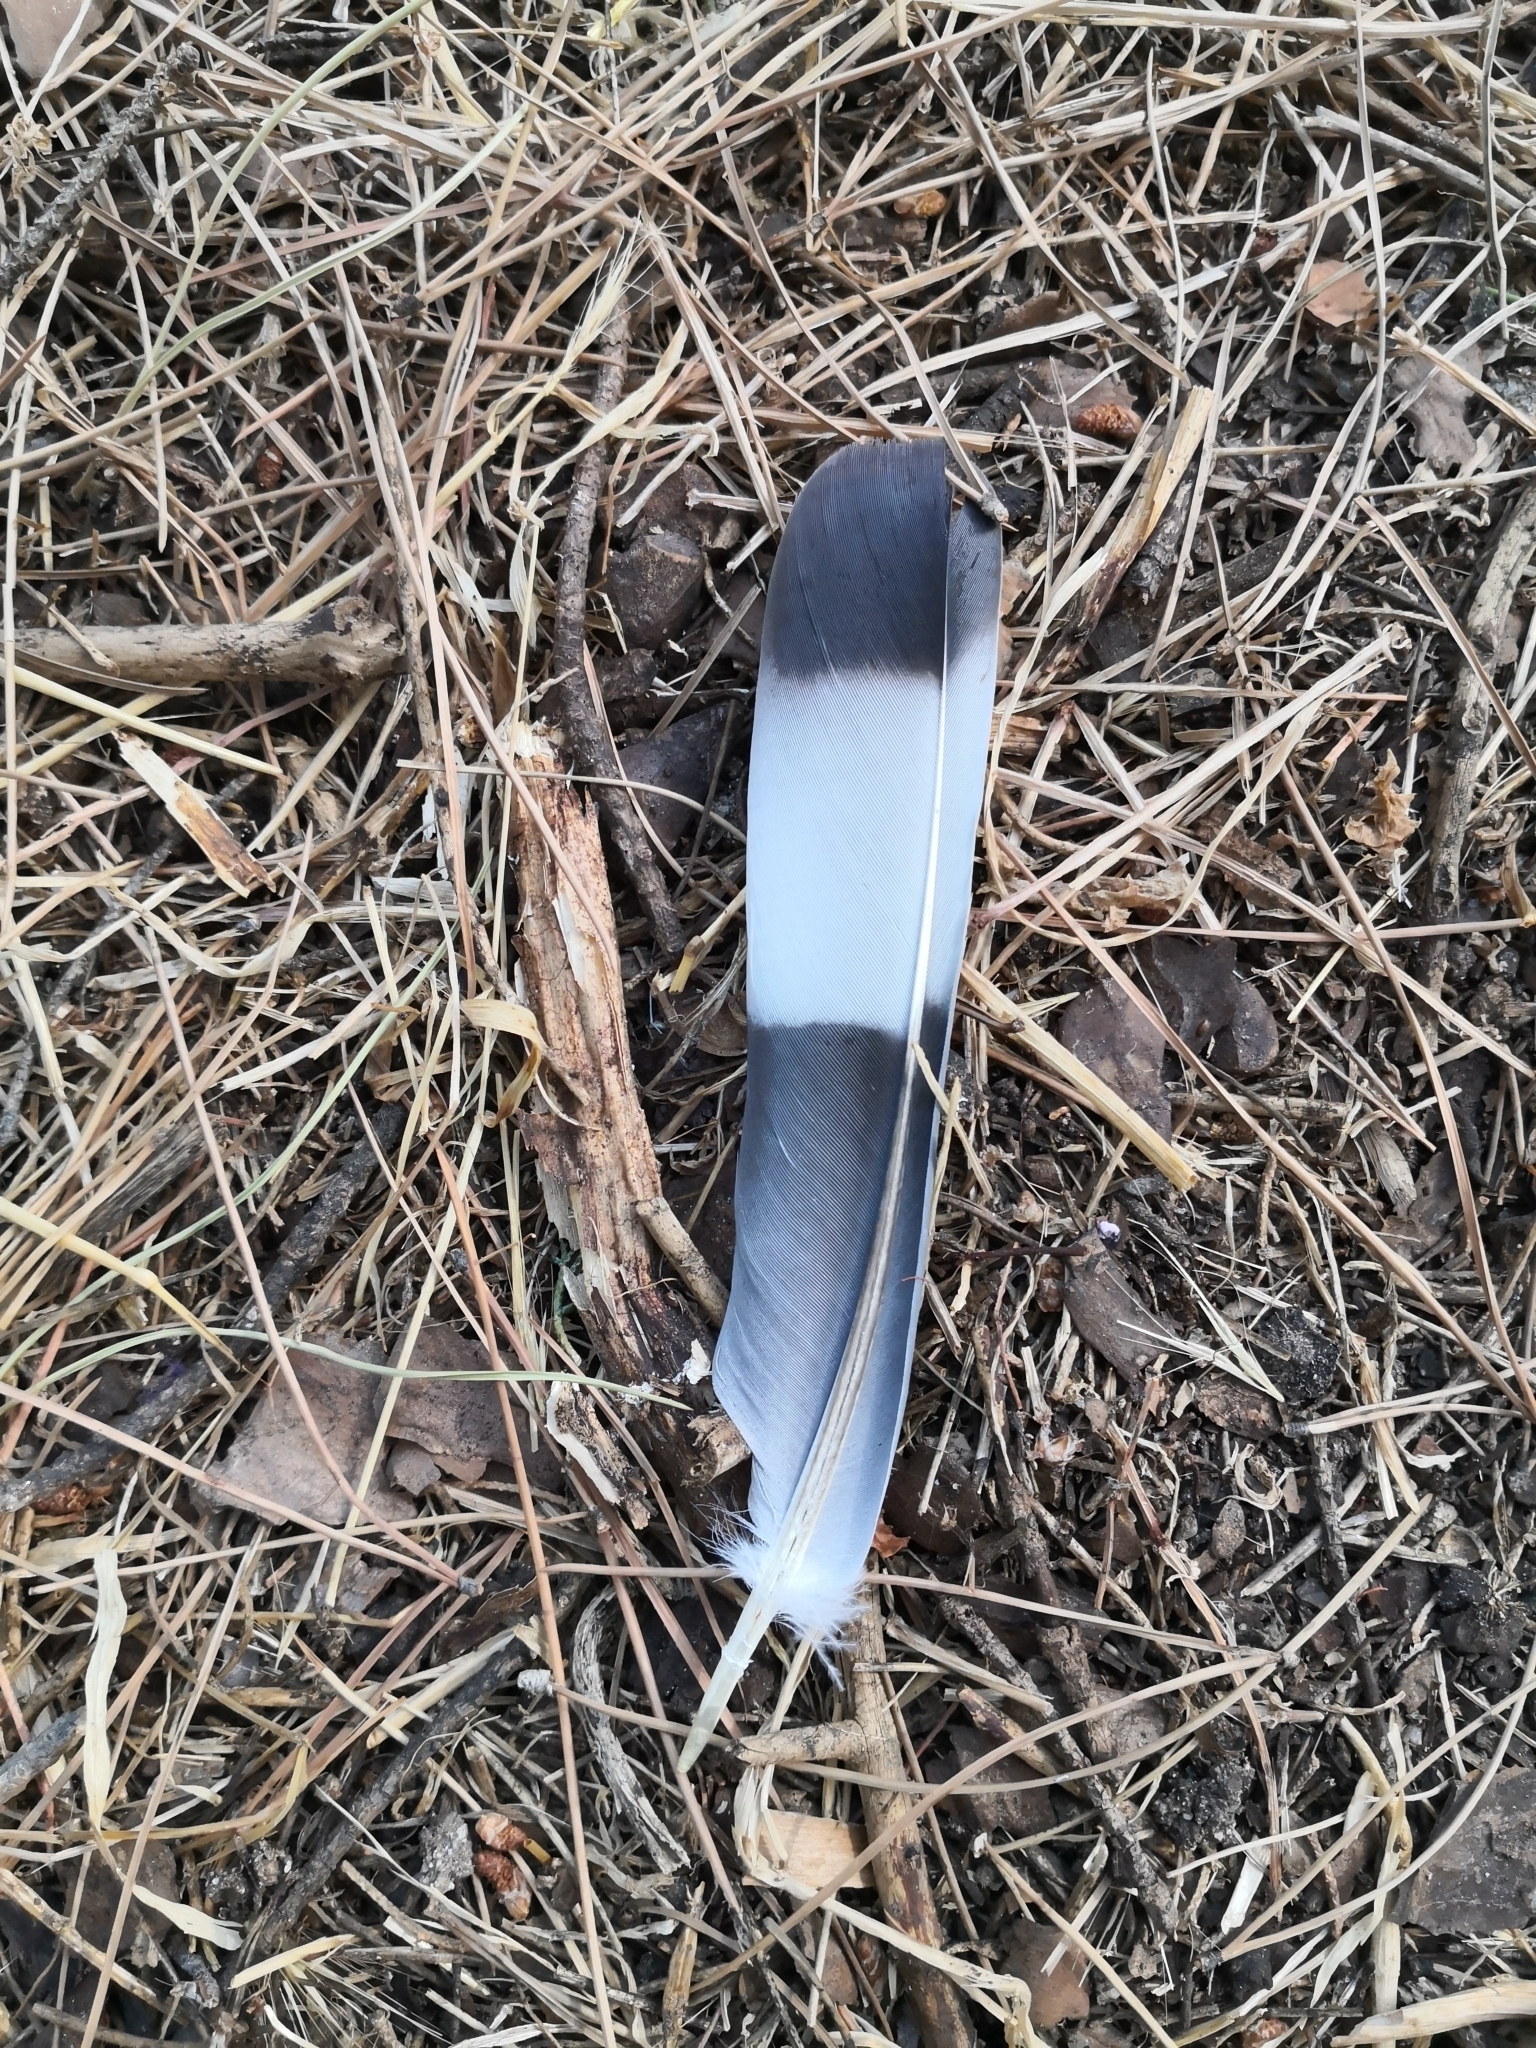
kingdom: Animalia
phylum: Chordata
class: Aves
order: Columbiformes
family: Columbidae
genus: Columba
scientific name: Columba palumbus
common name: Common wood pigeon
